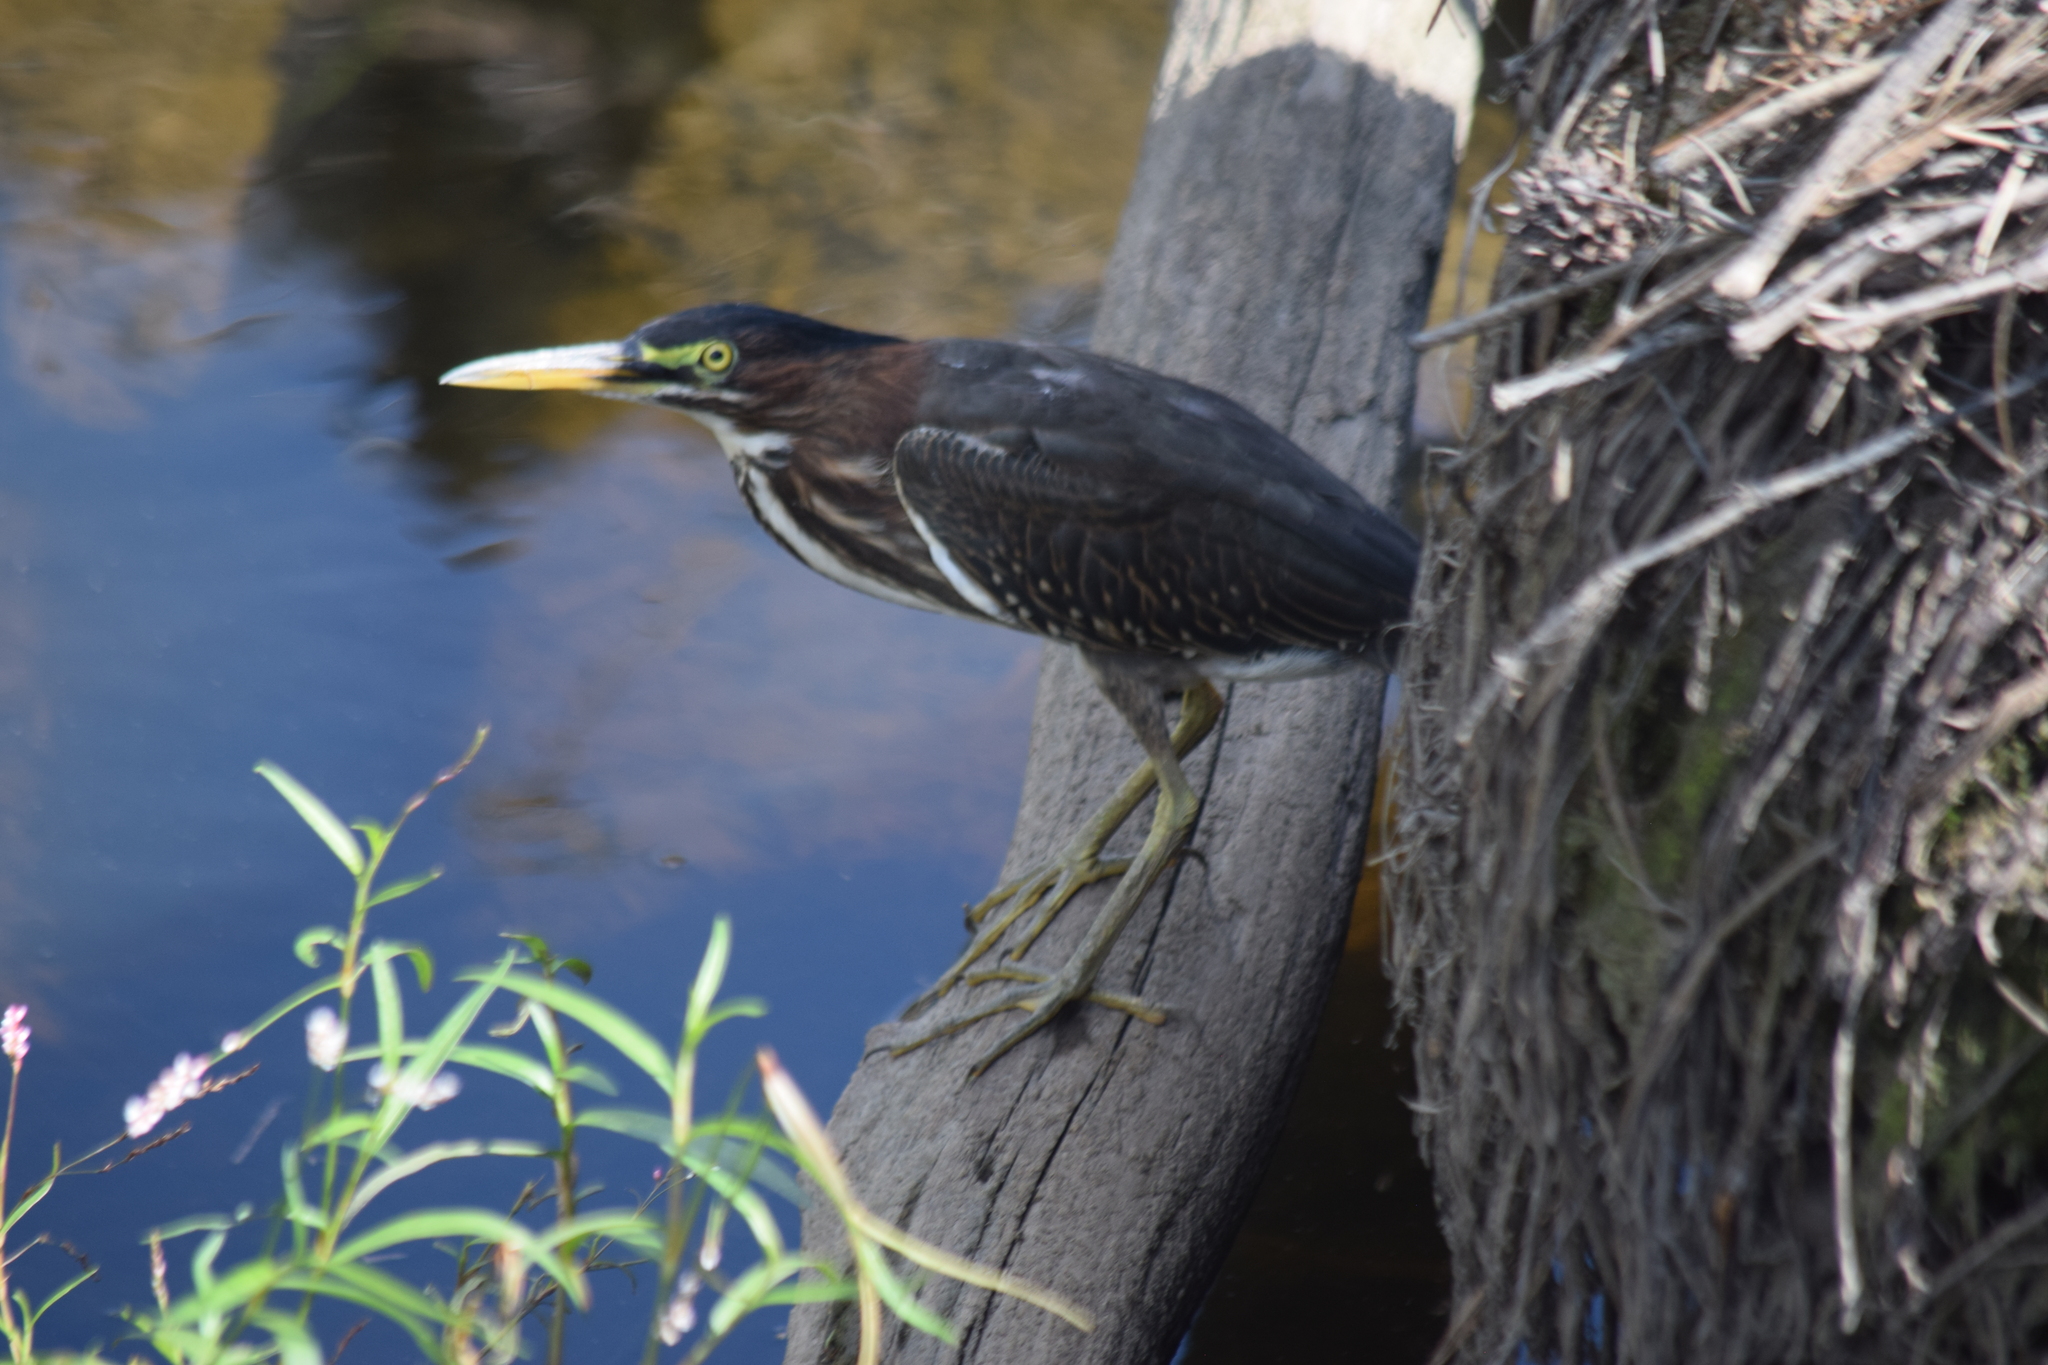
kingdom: Animalia
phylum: Chordata
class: Aves
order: Pelecaniformes
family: Ardeidae
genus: Butorides
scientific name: Butorides virescens
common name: Green heron
